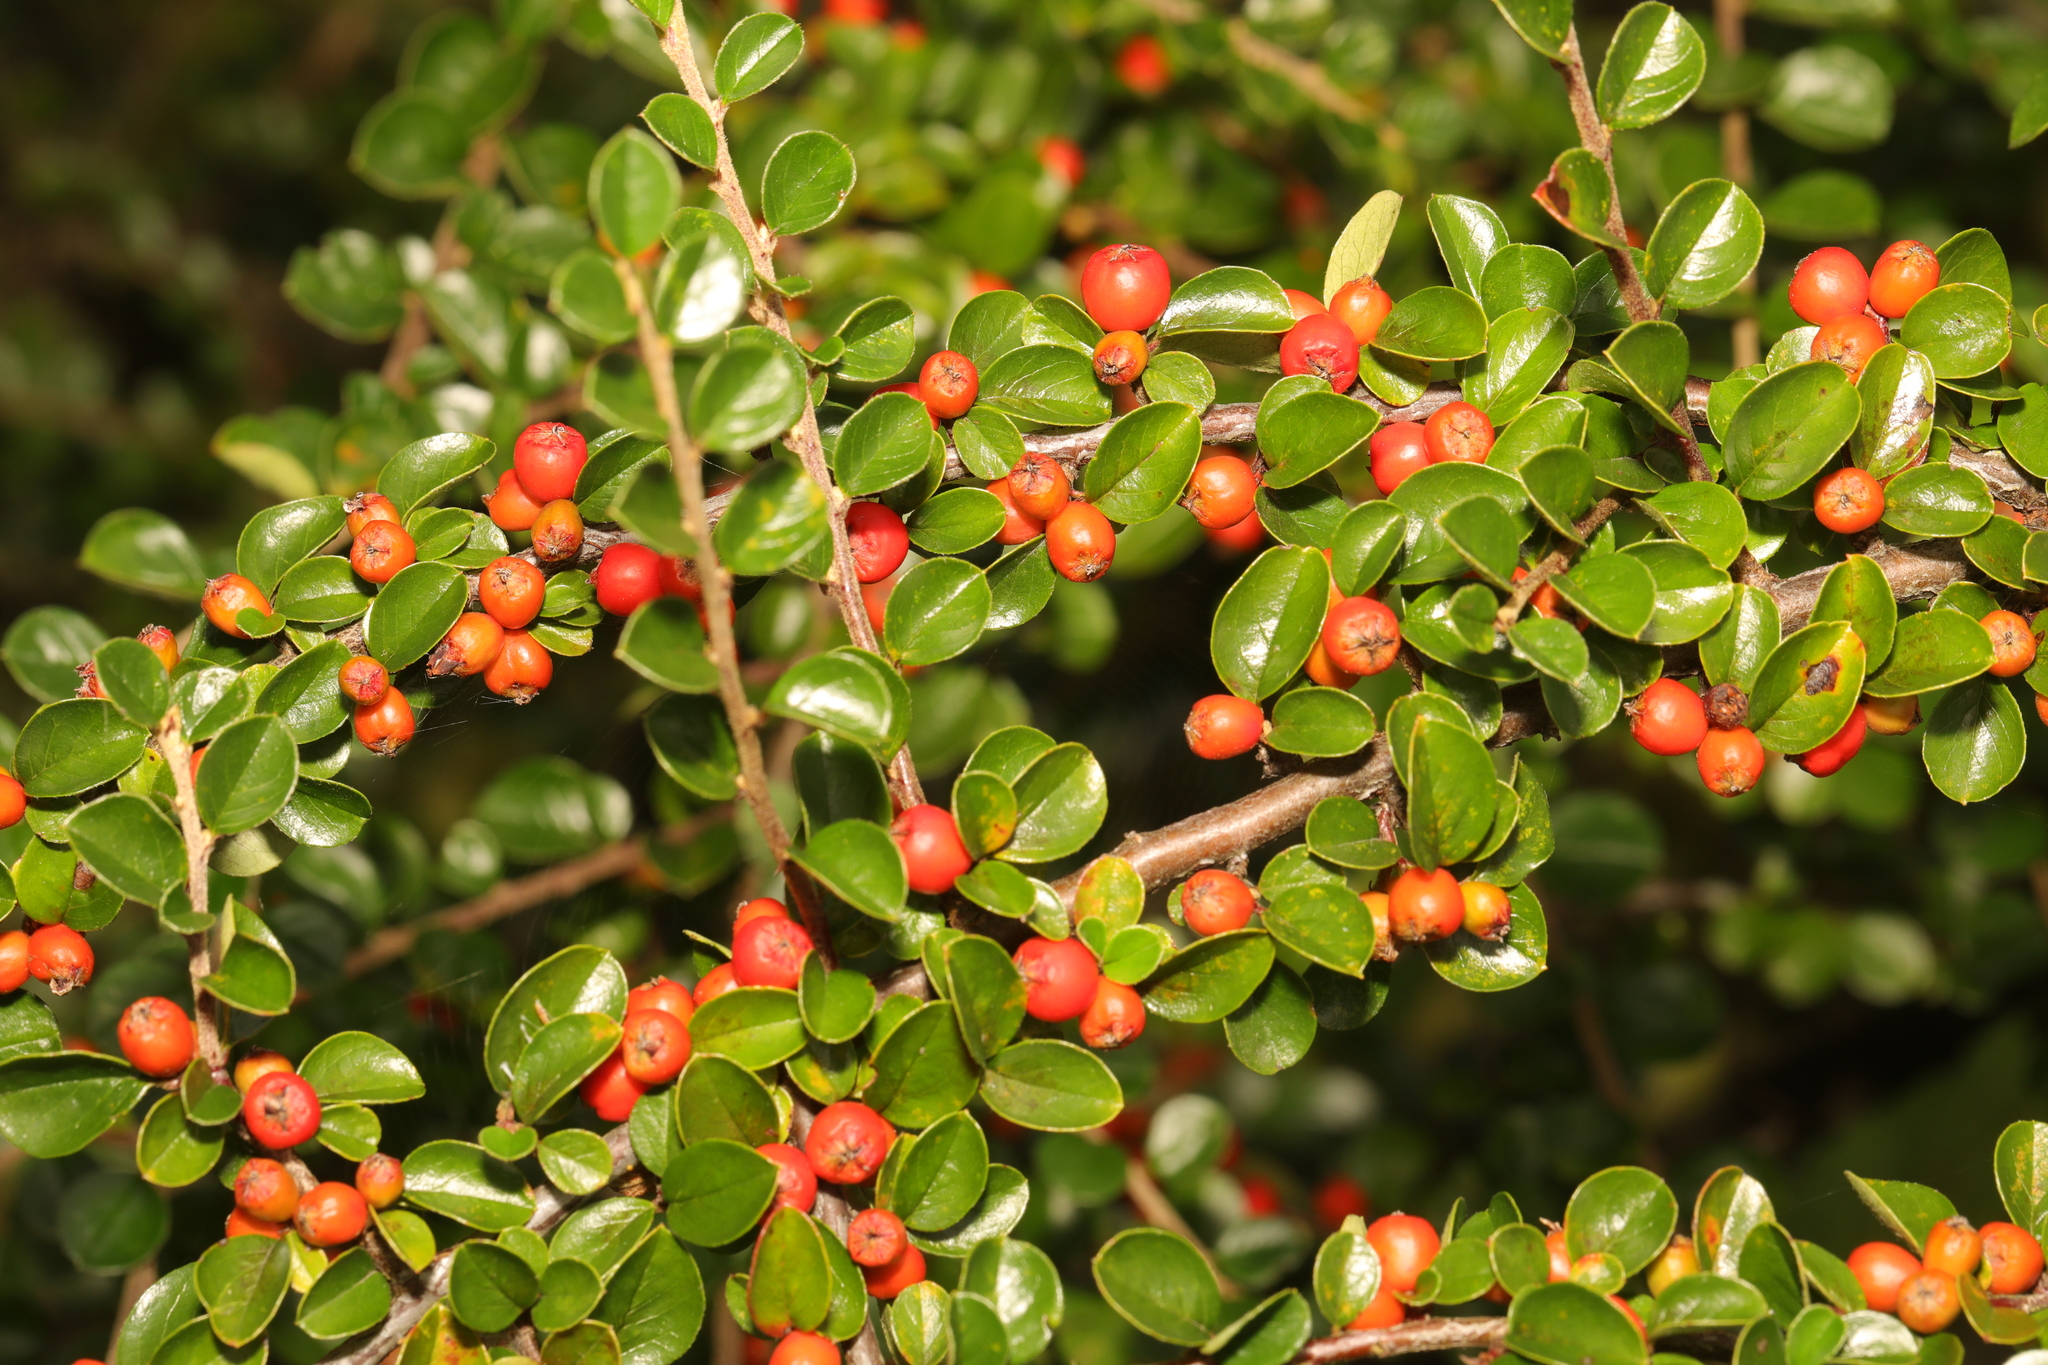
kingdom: Plantae
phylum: Tracheophyta
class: Magnoliopsida
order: Rosales
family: Rosaceae
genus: Cotoneaster
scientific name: Cotoneaster hjelmqvistii
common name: Hjelmqvist's cotoneaster
